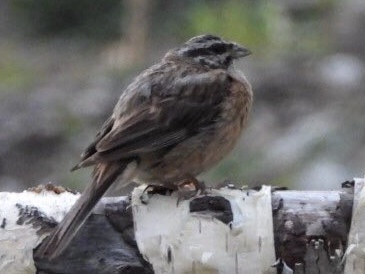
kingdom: Animalia
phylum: Chordata
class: Aves
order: Passeriformes
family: Emberizidae
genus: Emberiza
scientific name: Emberiza cia
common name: Rock bunting
